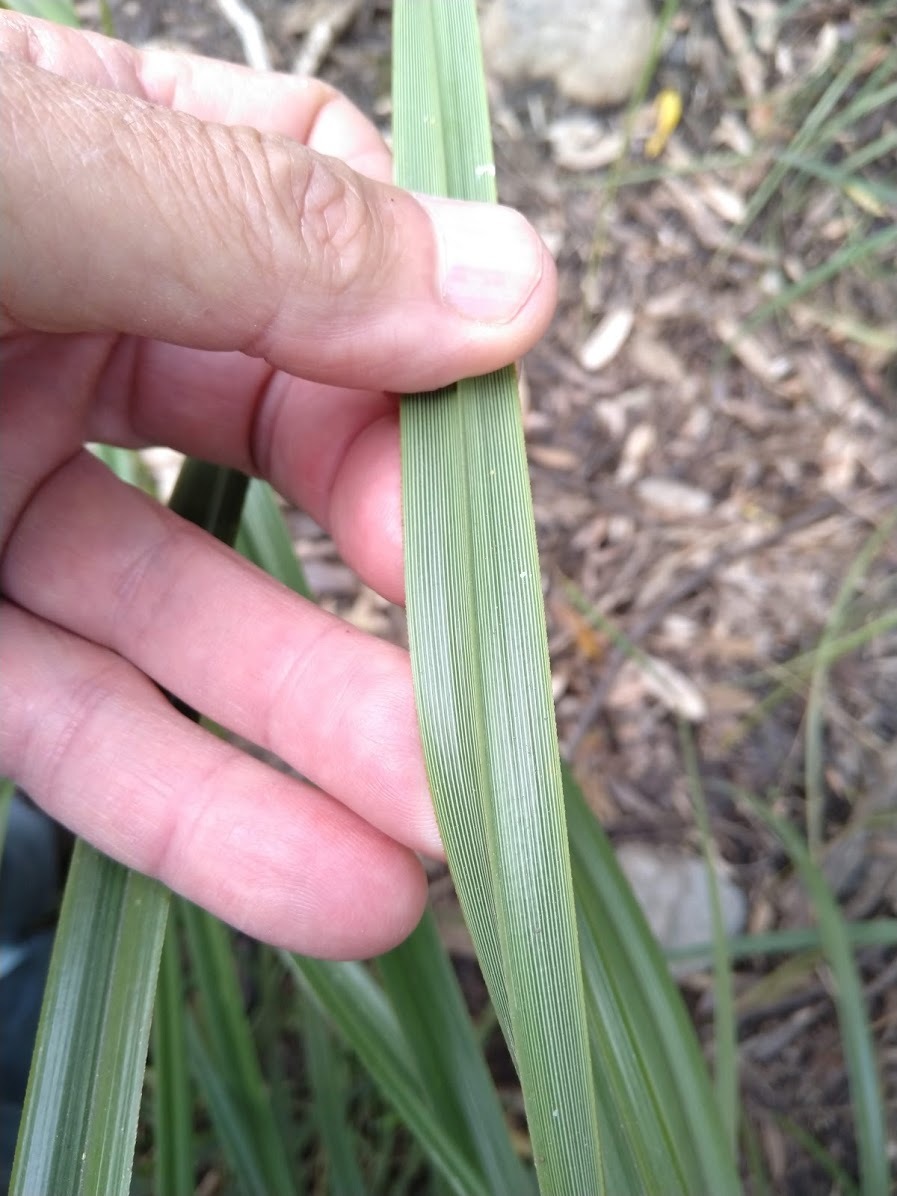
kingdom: Plantae
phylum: Tracheophyta
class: Liliopsida
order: Poales
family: Cyperaceae
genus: Cyperus
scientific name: Cyperus lucidus
